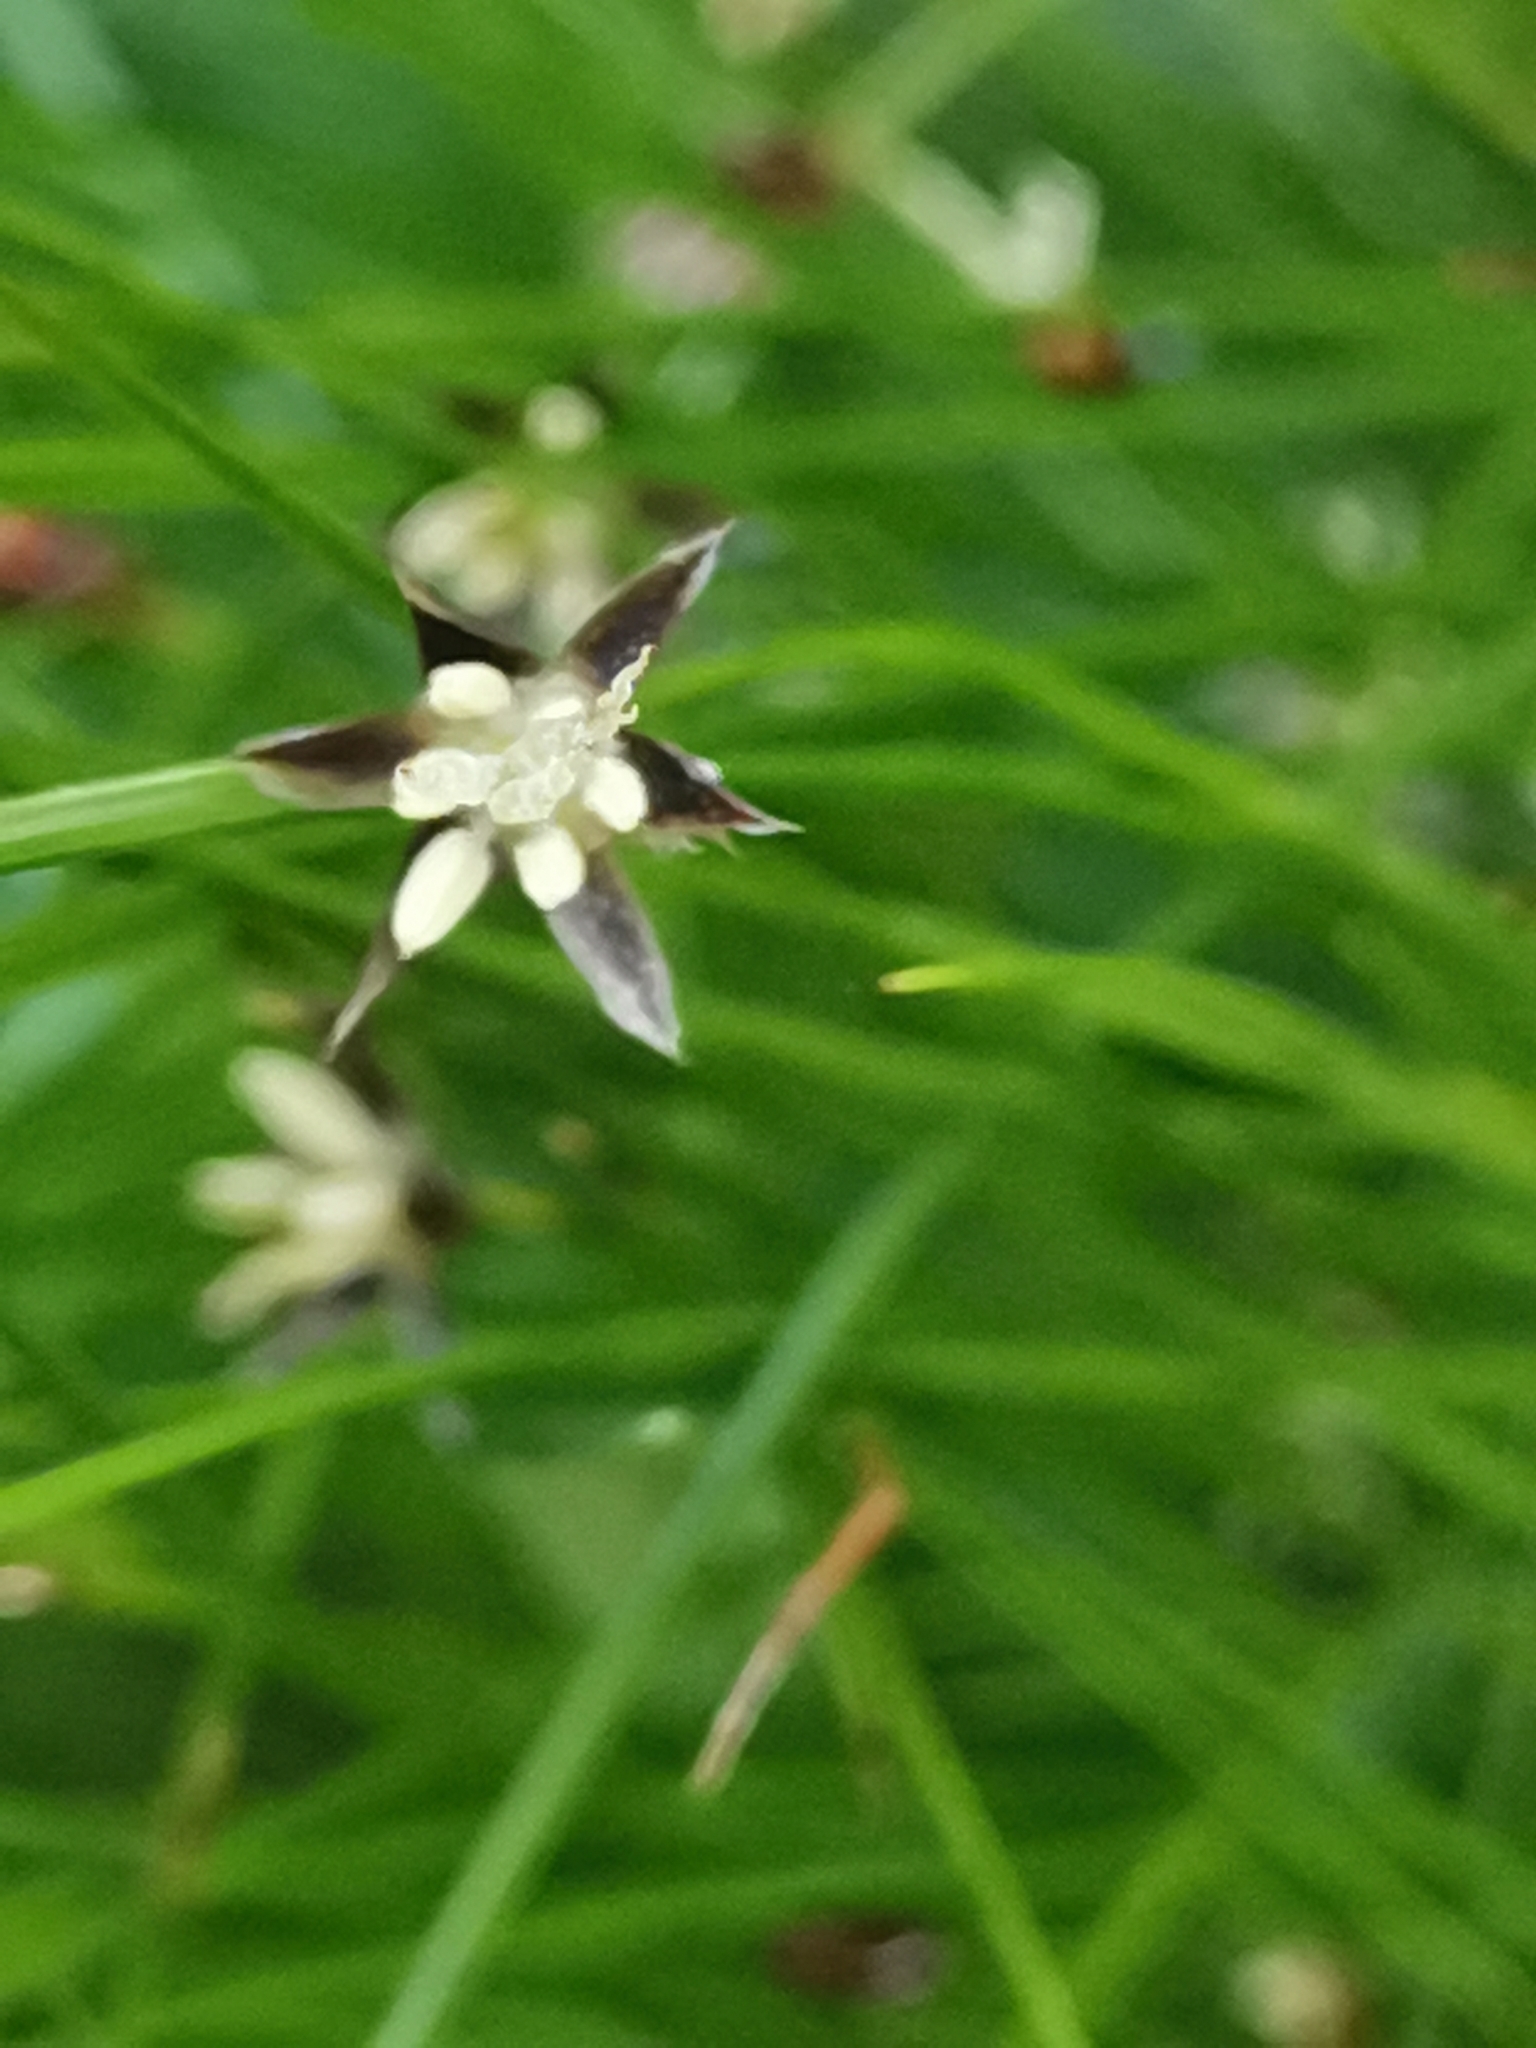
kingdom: Plantae
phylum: Tracheophyta
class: Liliopsida
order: Poales
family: Juncaceae
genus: Oreojuncus
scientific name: Oreojuncus monanthos
